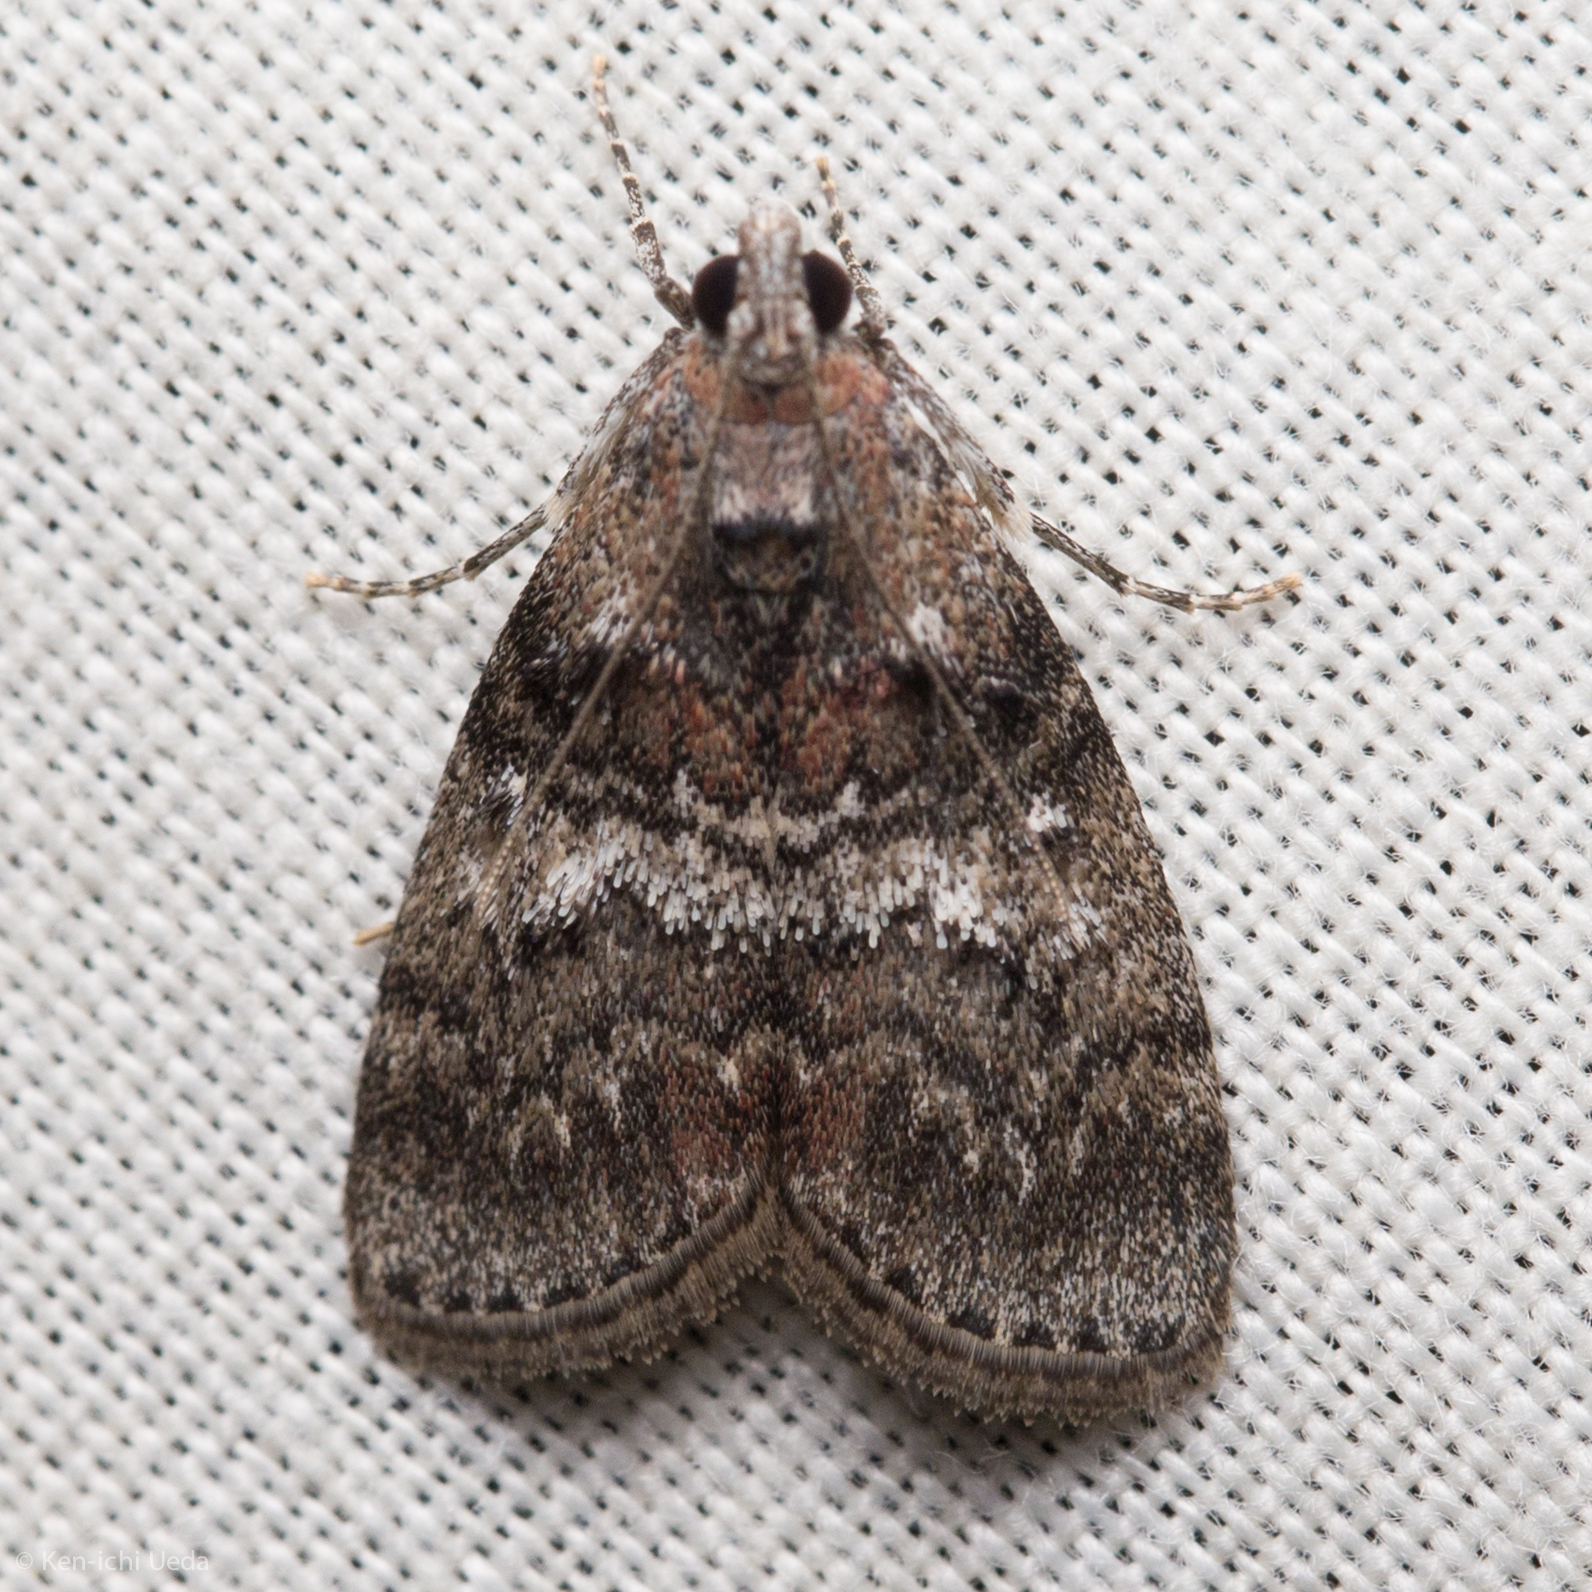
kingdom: Animalia
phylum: Arthropoda
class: Insecta
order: Lepidoptera
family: Pyralidae
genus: Pococera
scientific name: Pococera asperatella
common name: Maple webworm moth
